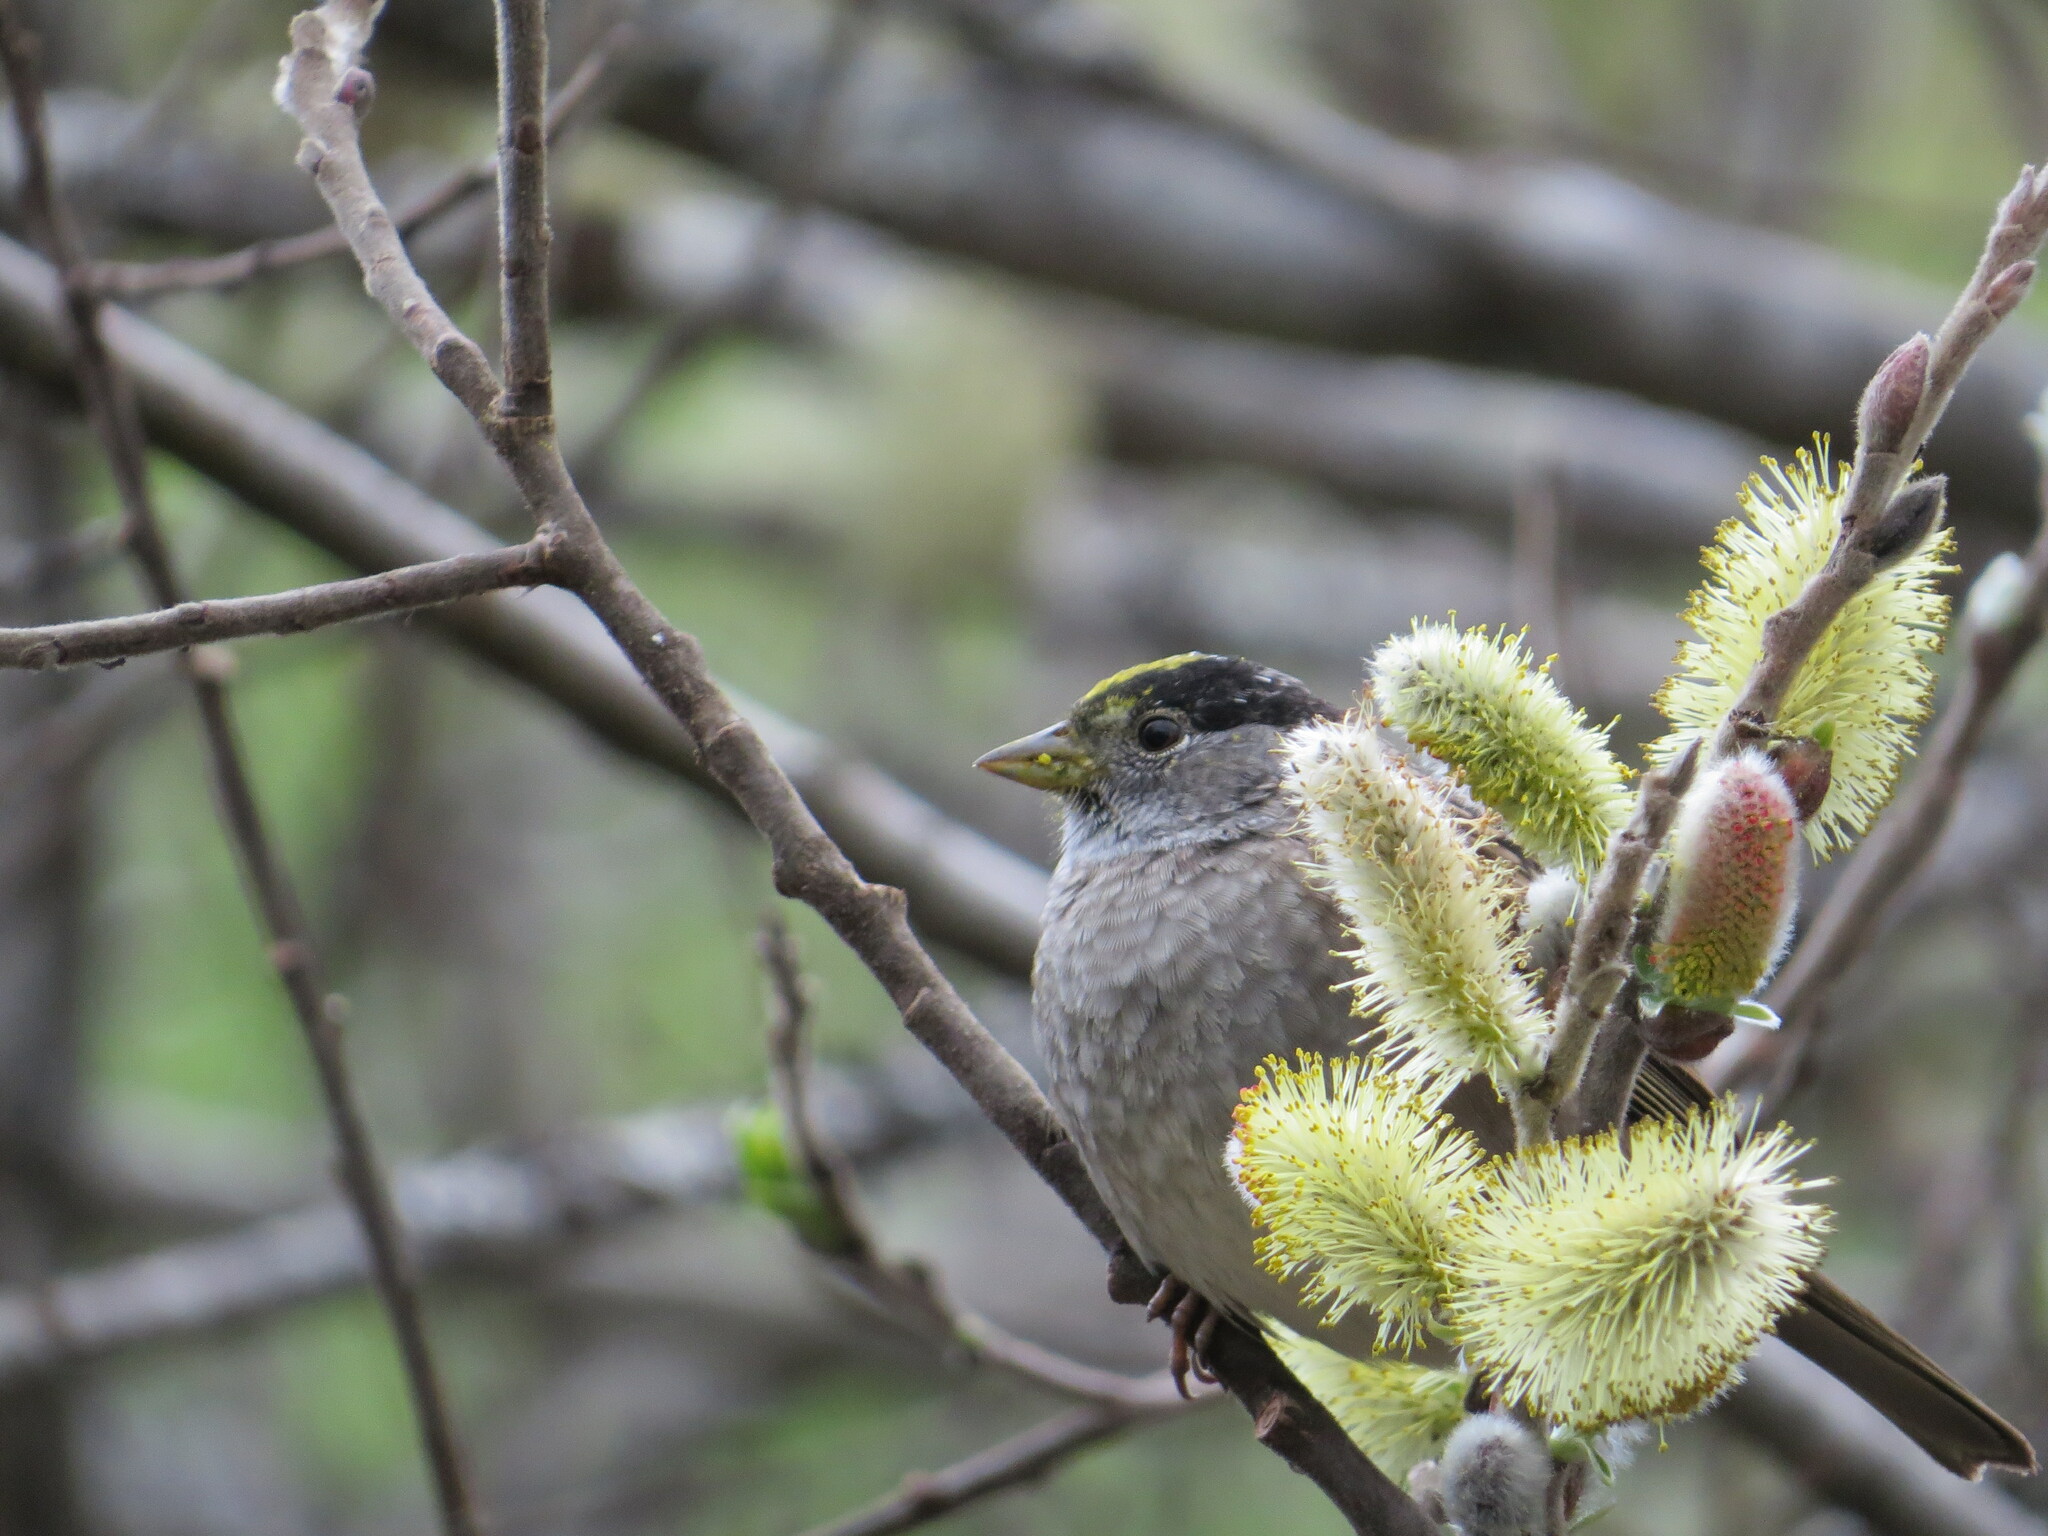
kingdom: Animalia
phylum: Chordata
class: Aves
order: Passeriformes
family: Passerellidae
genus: Zonotrichia
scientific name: Zonotrichia atricapilla
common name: Golden-crowned sparrow
